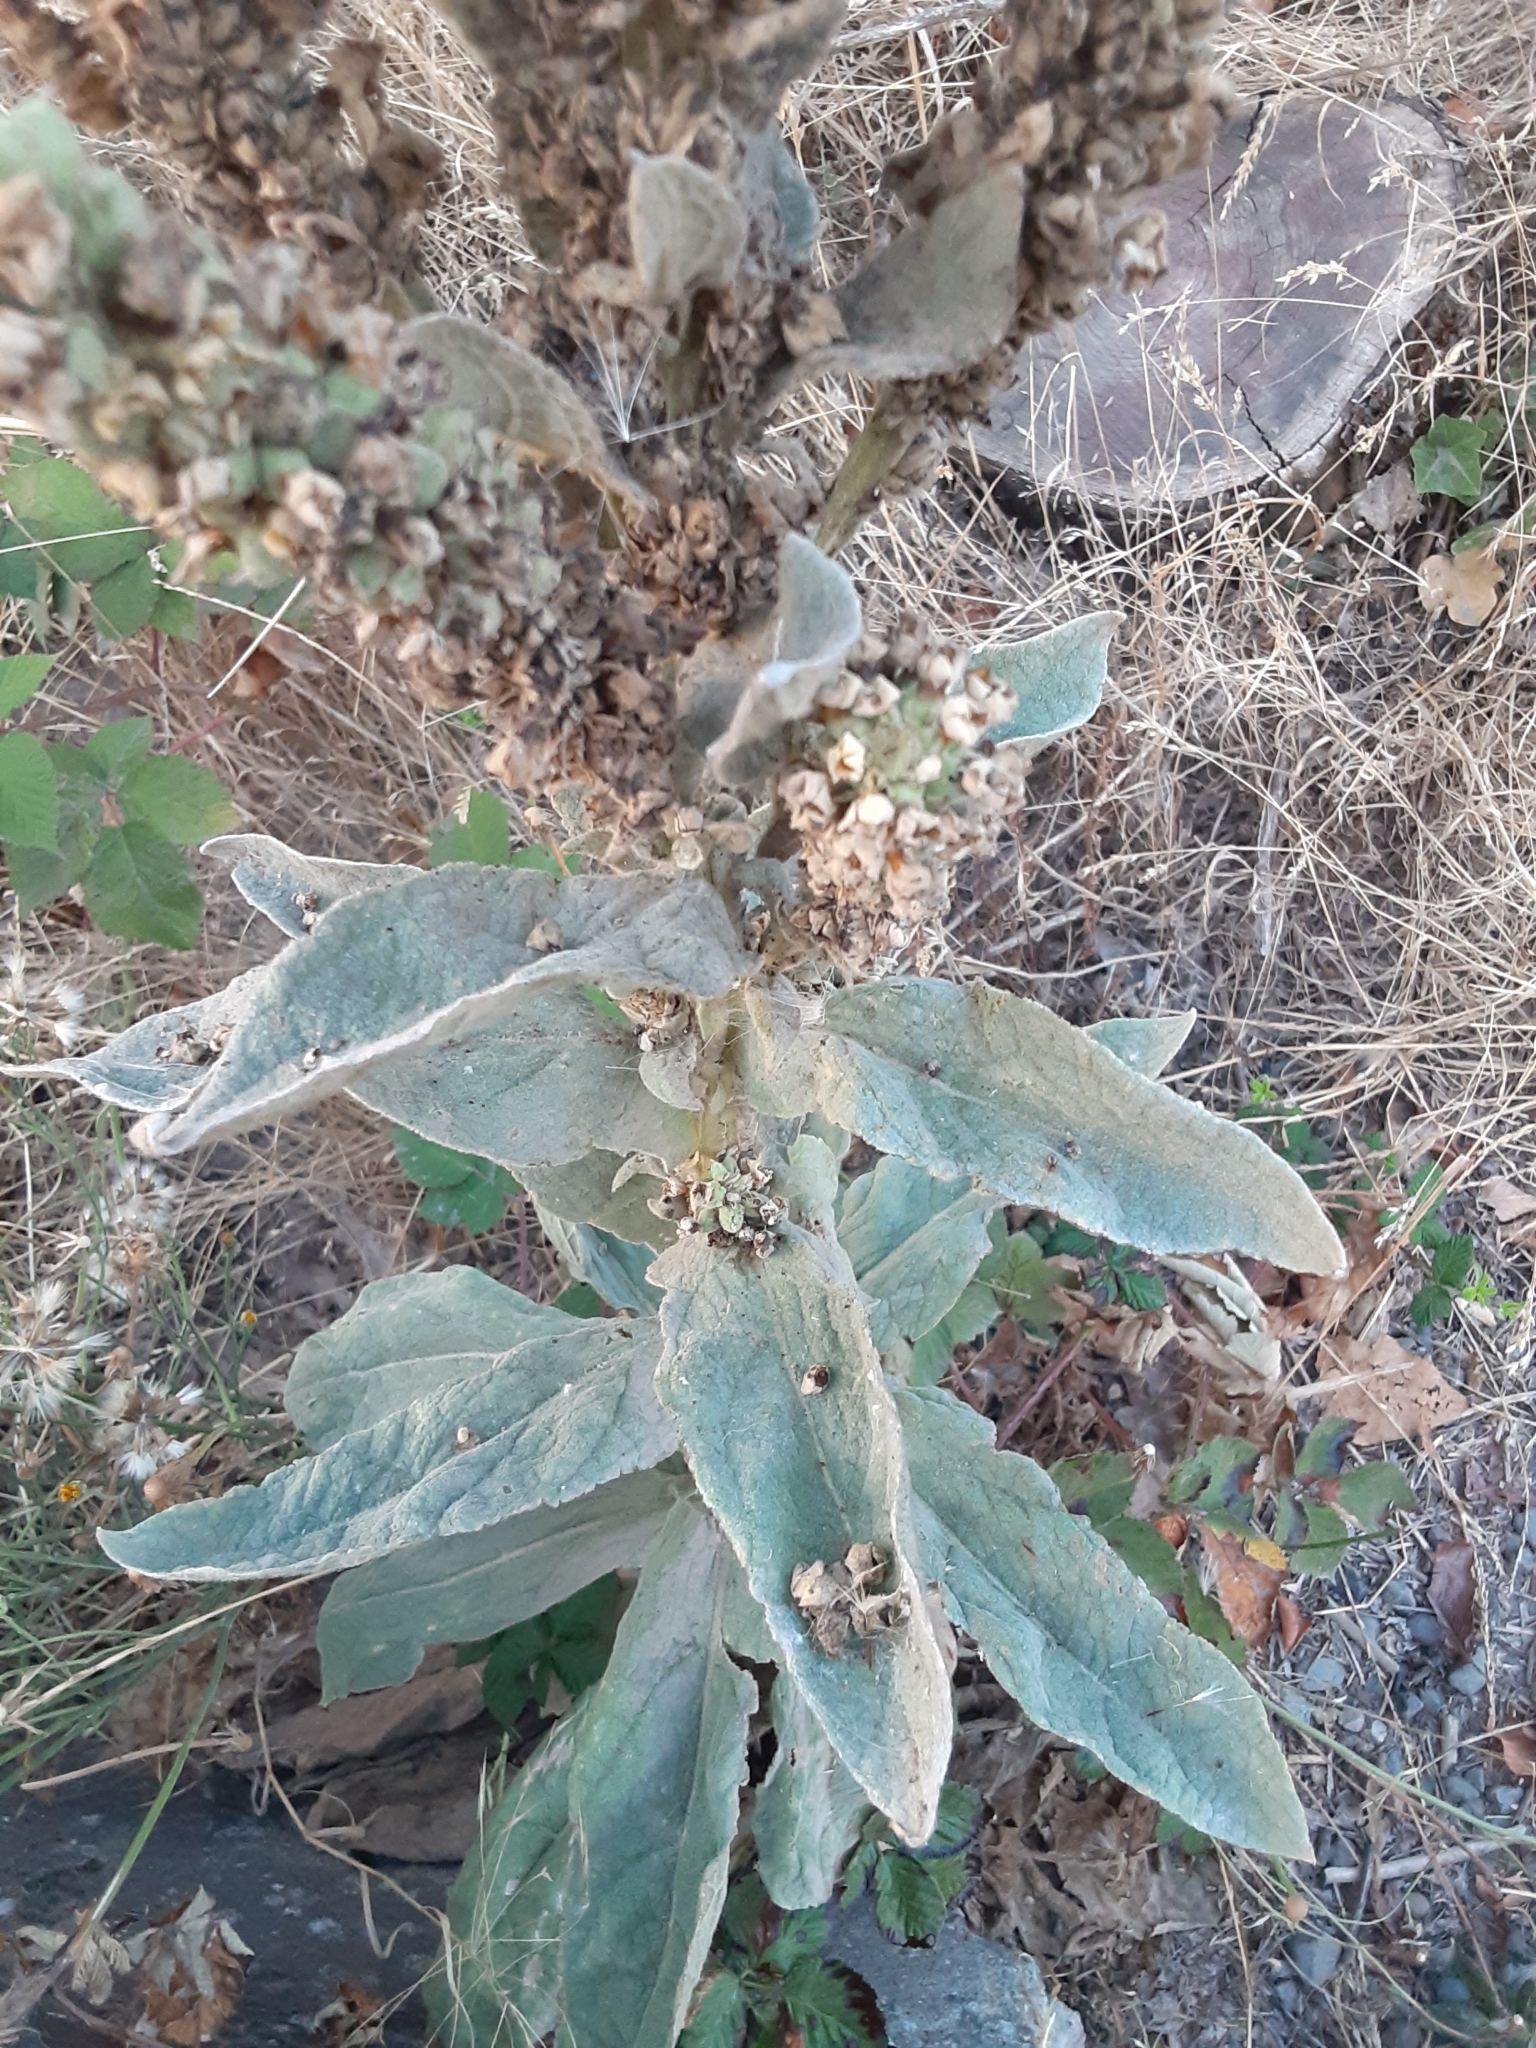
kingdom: Plantae
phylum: Tracheophyta
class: Magnoliopsida
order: Lamiales
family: Scrophulariaceae
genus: Verbascum
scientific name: Verbascum thapsus
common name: Common mullein
